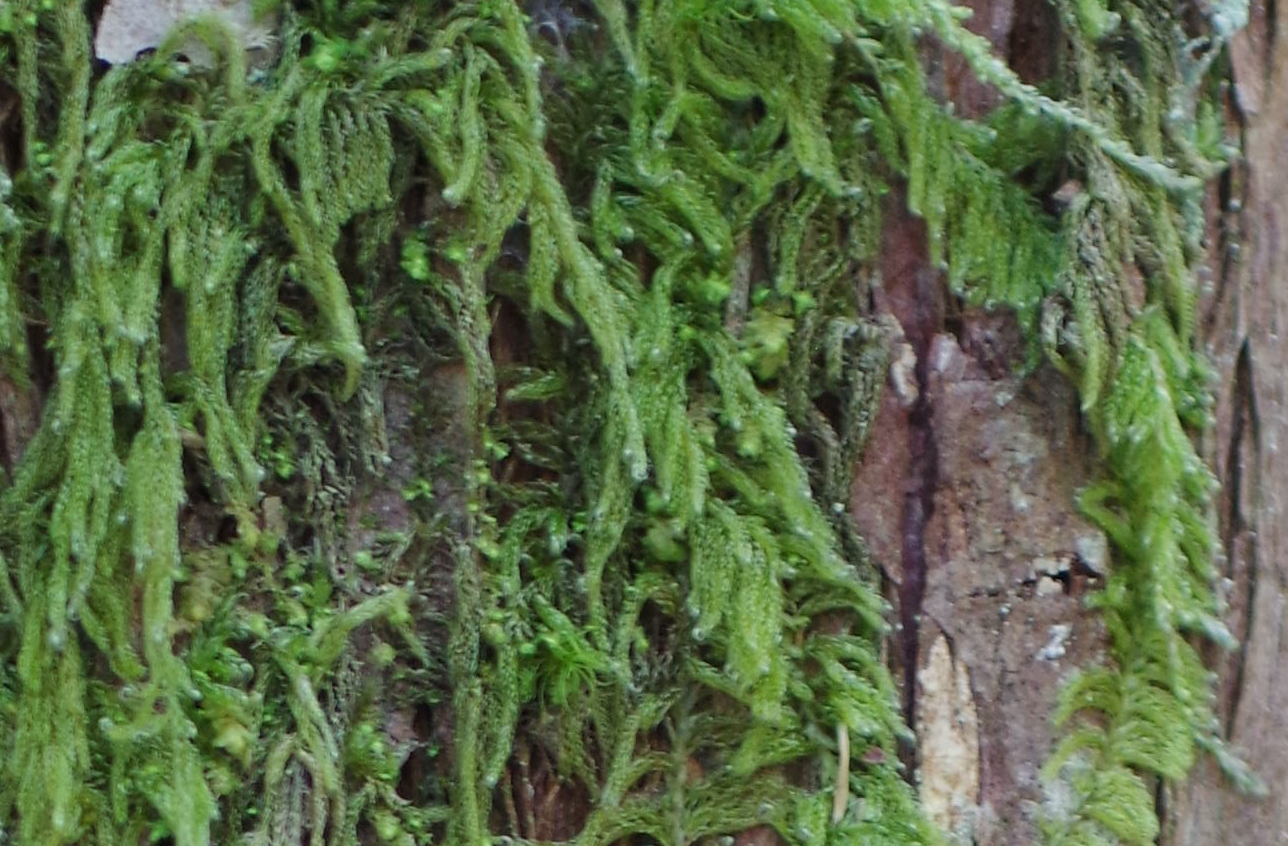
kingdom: Plantae
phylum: Bryophyta
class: Bryopsida
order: Hypnales
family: Pylaisiadelphaceae
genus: Trochophyllohypnum
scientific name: Trochophyllohypnum circinale
